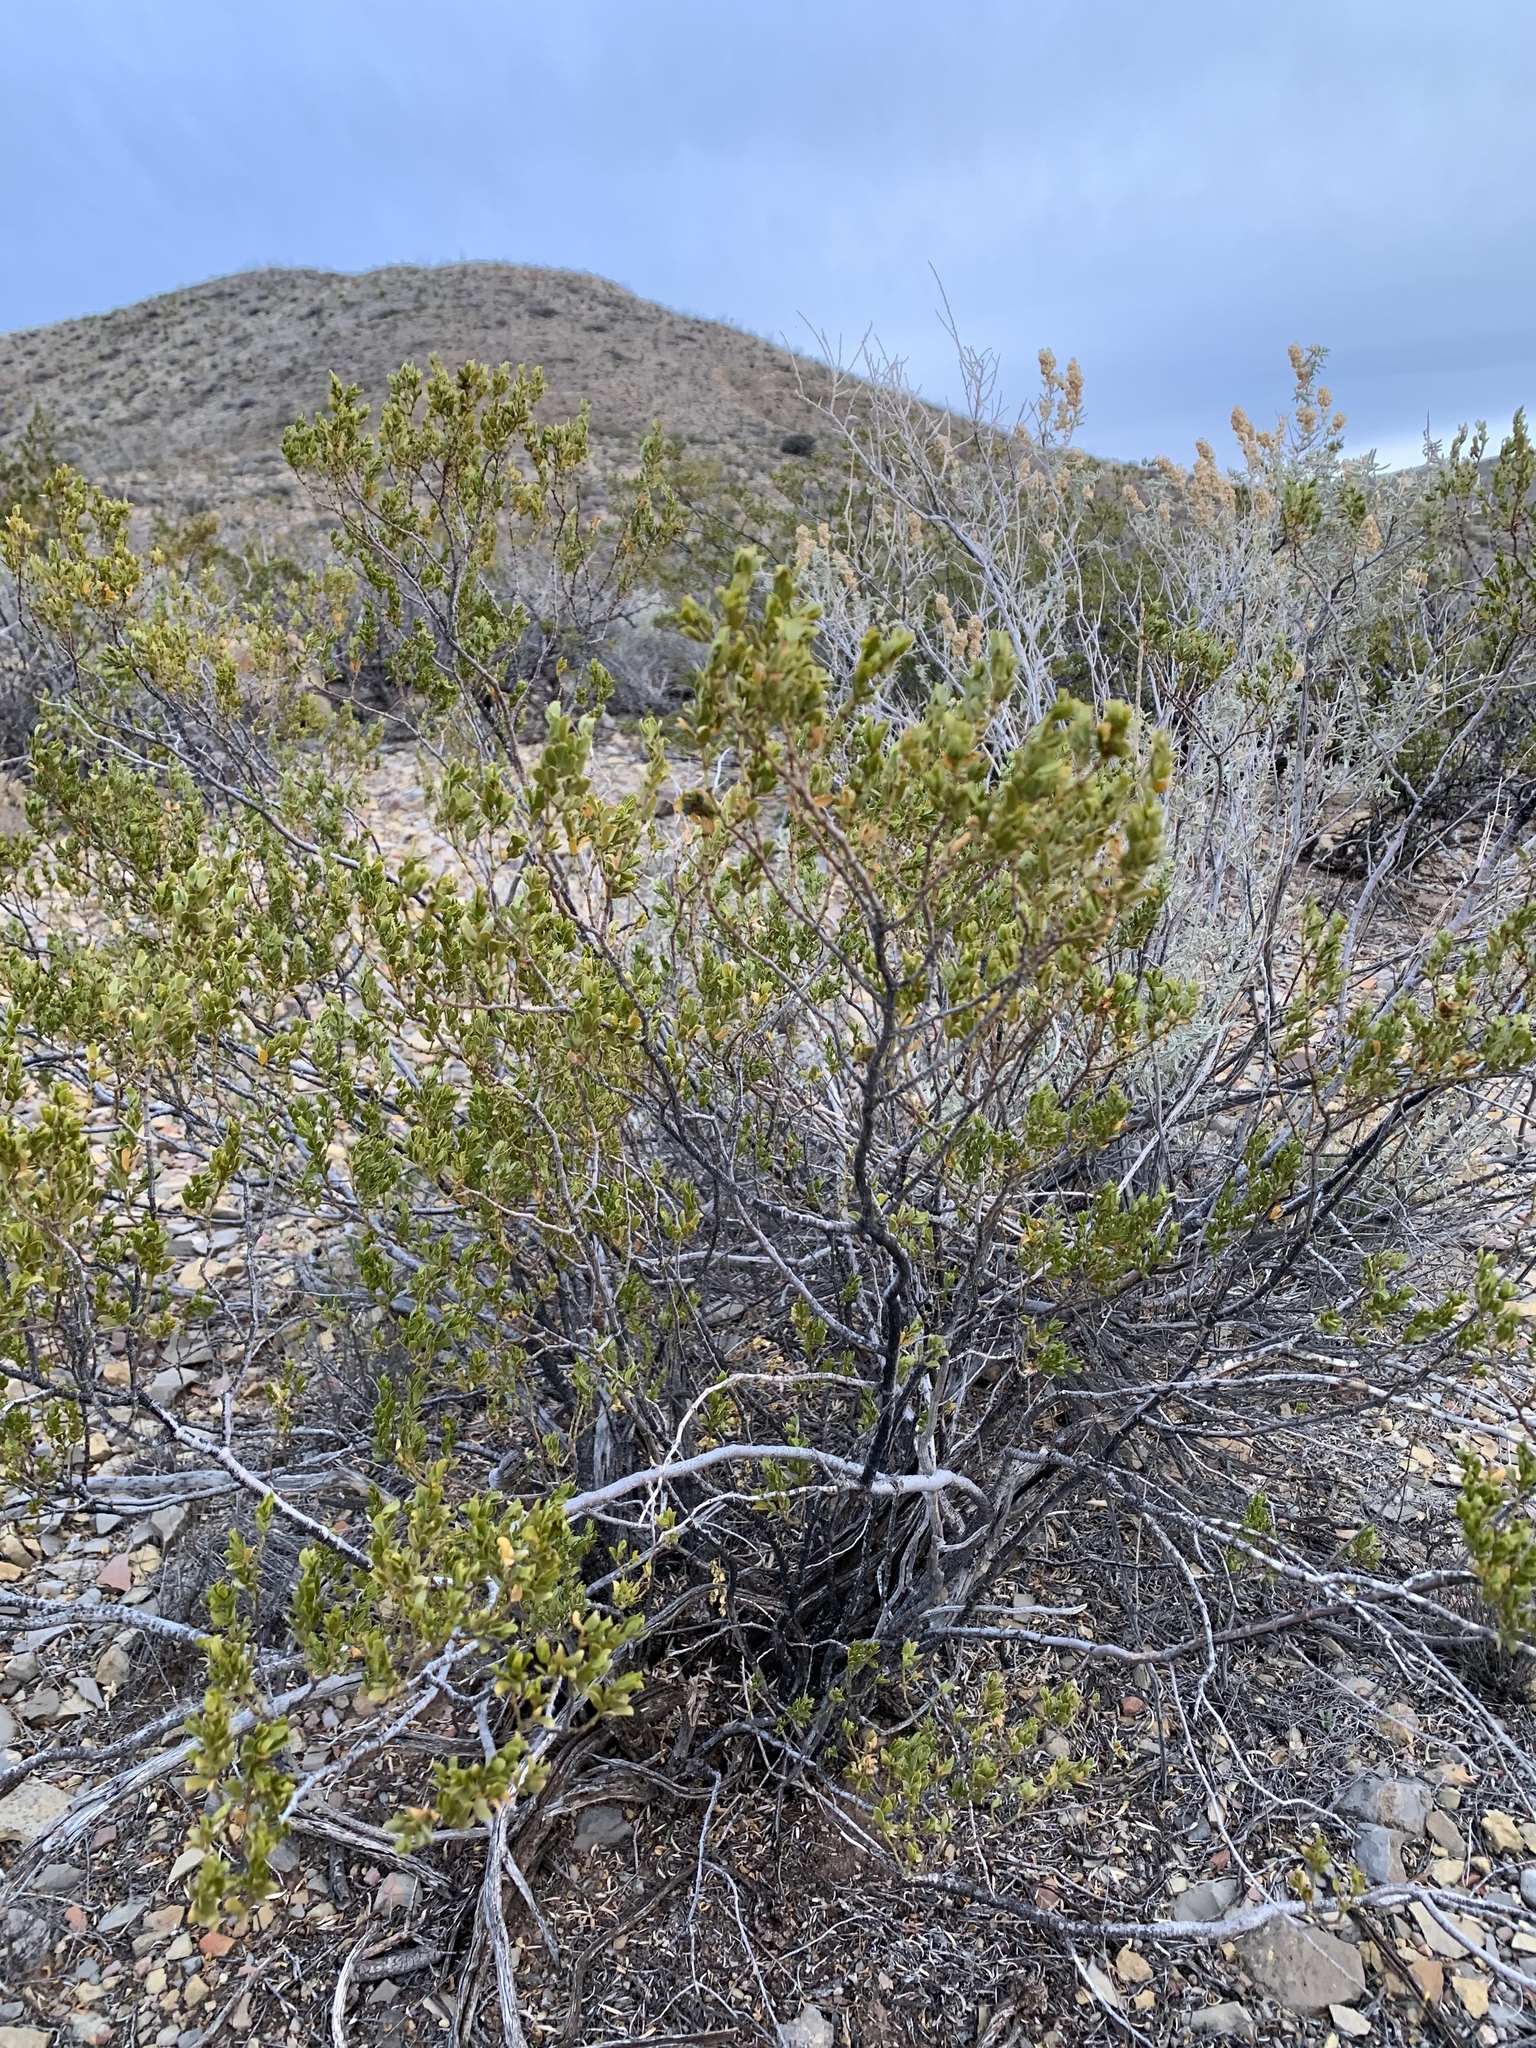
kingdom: Plantae
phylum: Tracheophyta
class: Magnoliopsida
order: Zygophyllales
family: Zygophyllaceae
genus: Larrea
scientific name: Larrea tridentata
